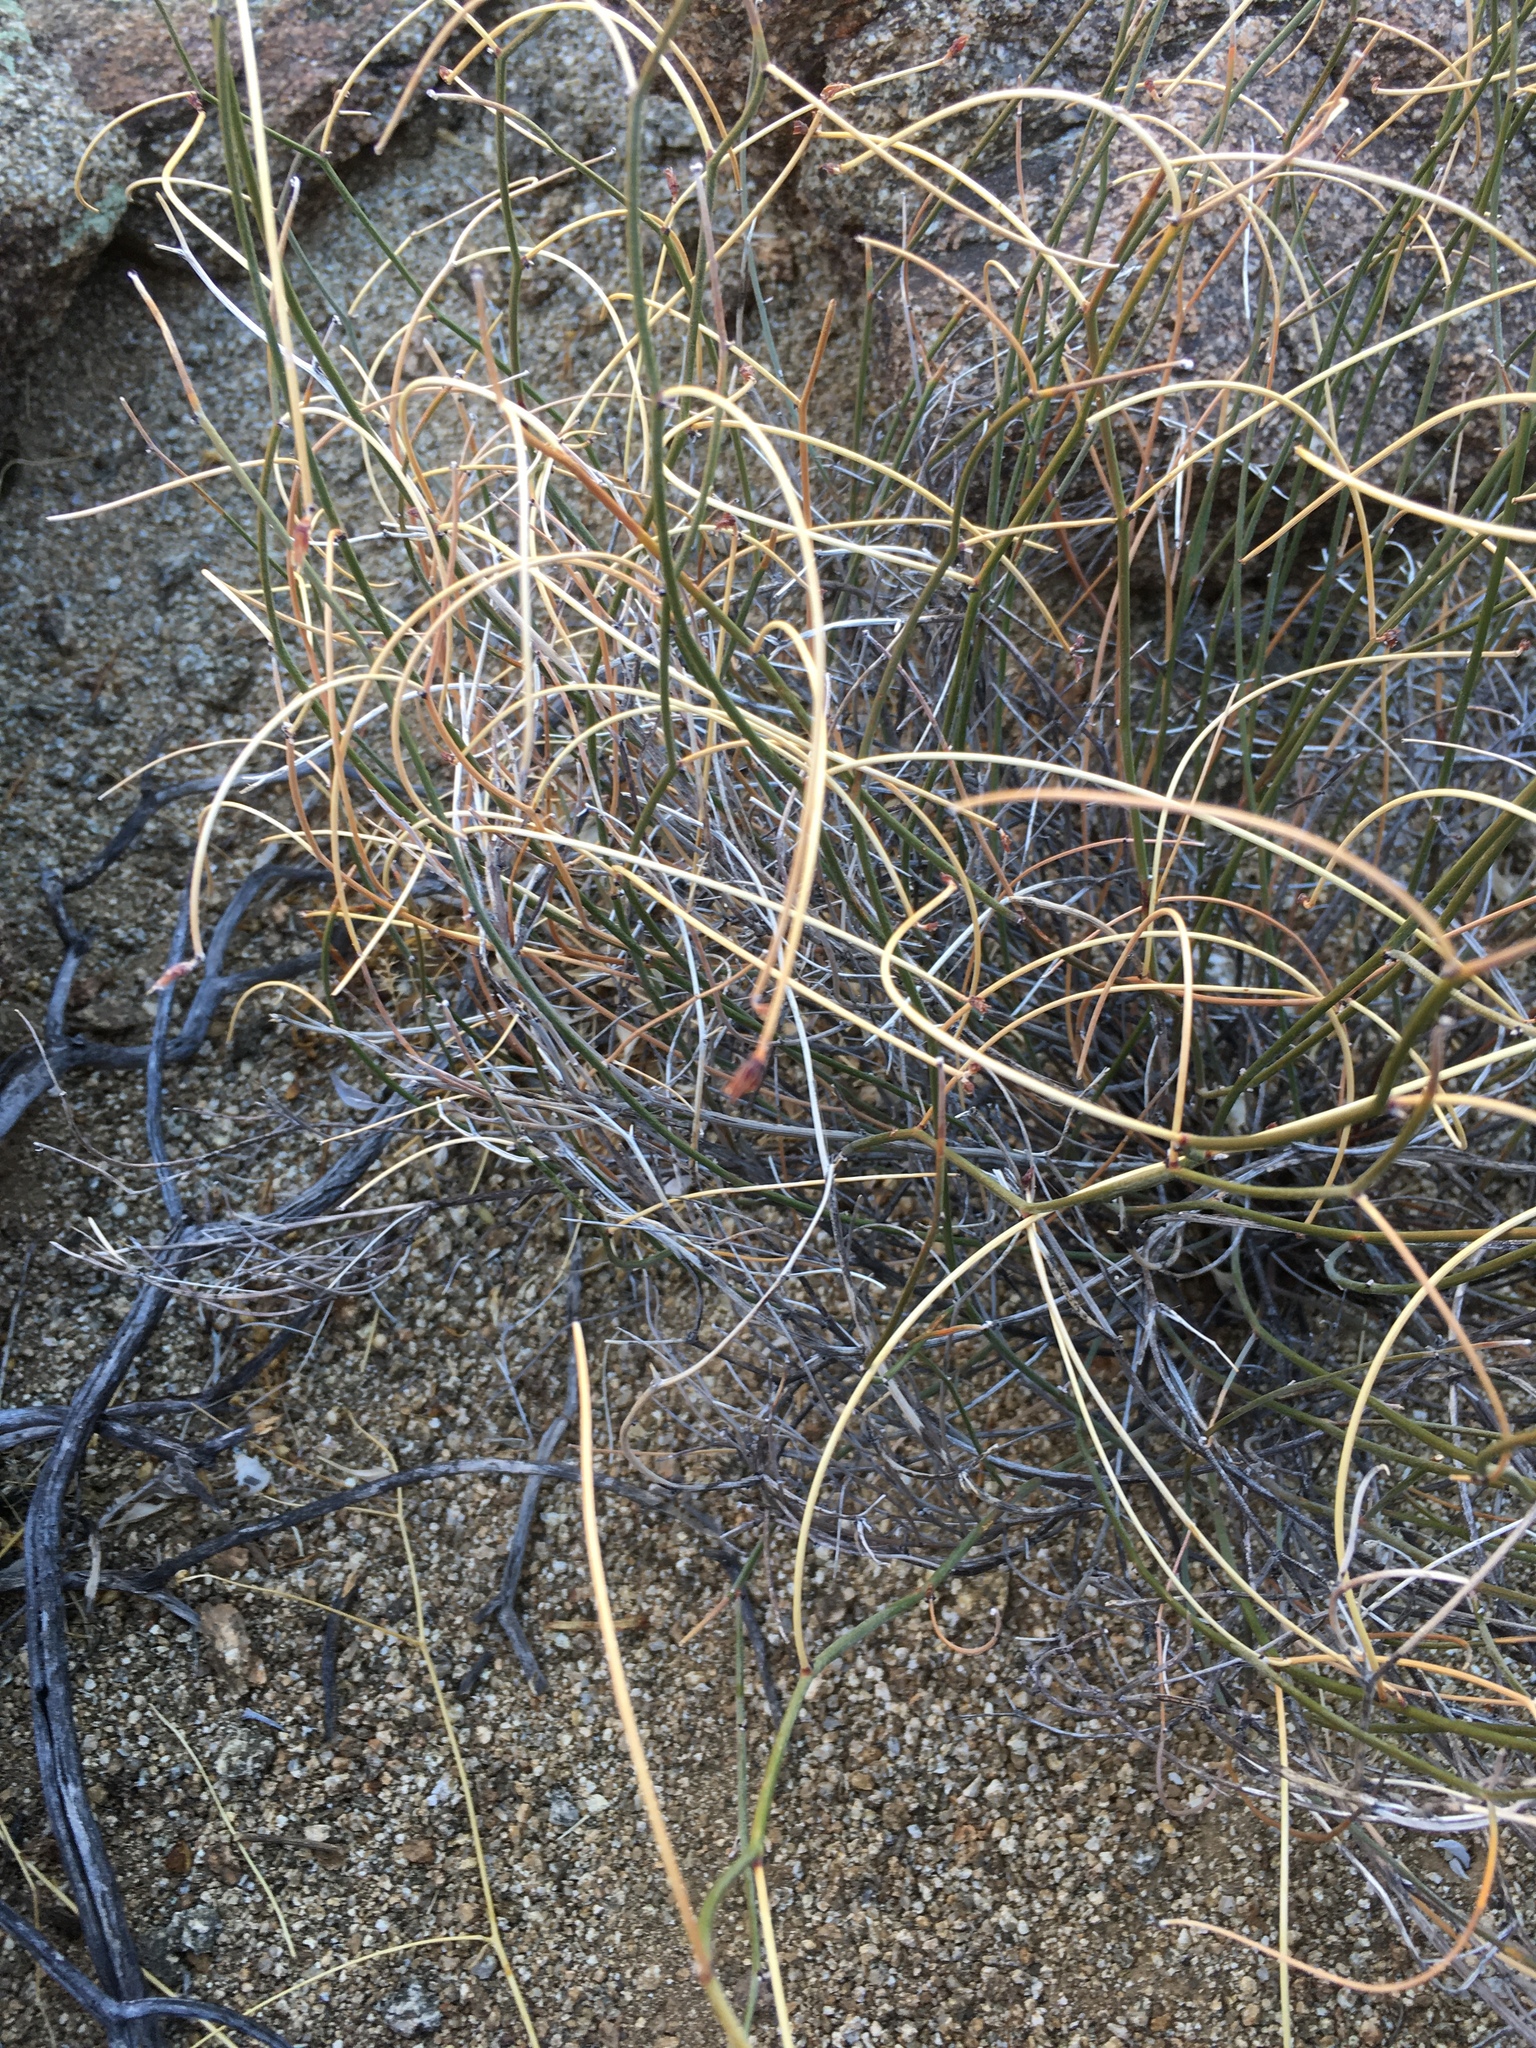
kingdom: Plantae
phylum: Tracheophyta
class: Magnoliopsida
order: Fabales
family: Fabaceae
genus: Acmispon
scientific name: Acmispon rigidus
